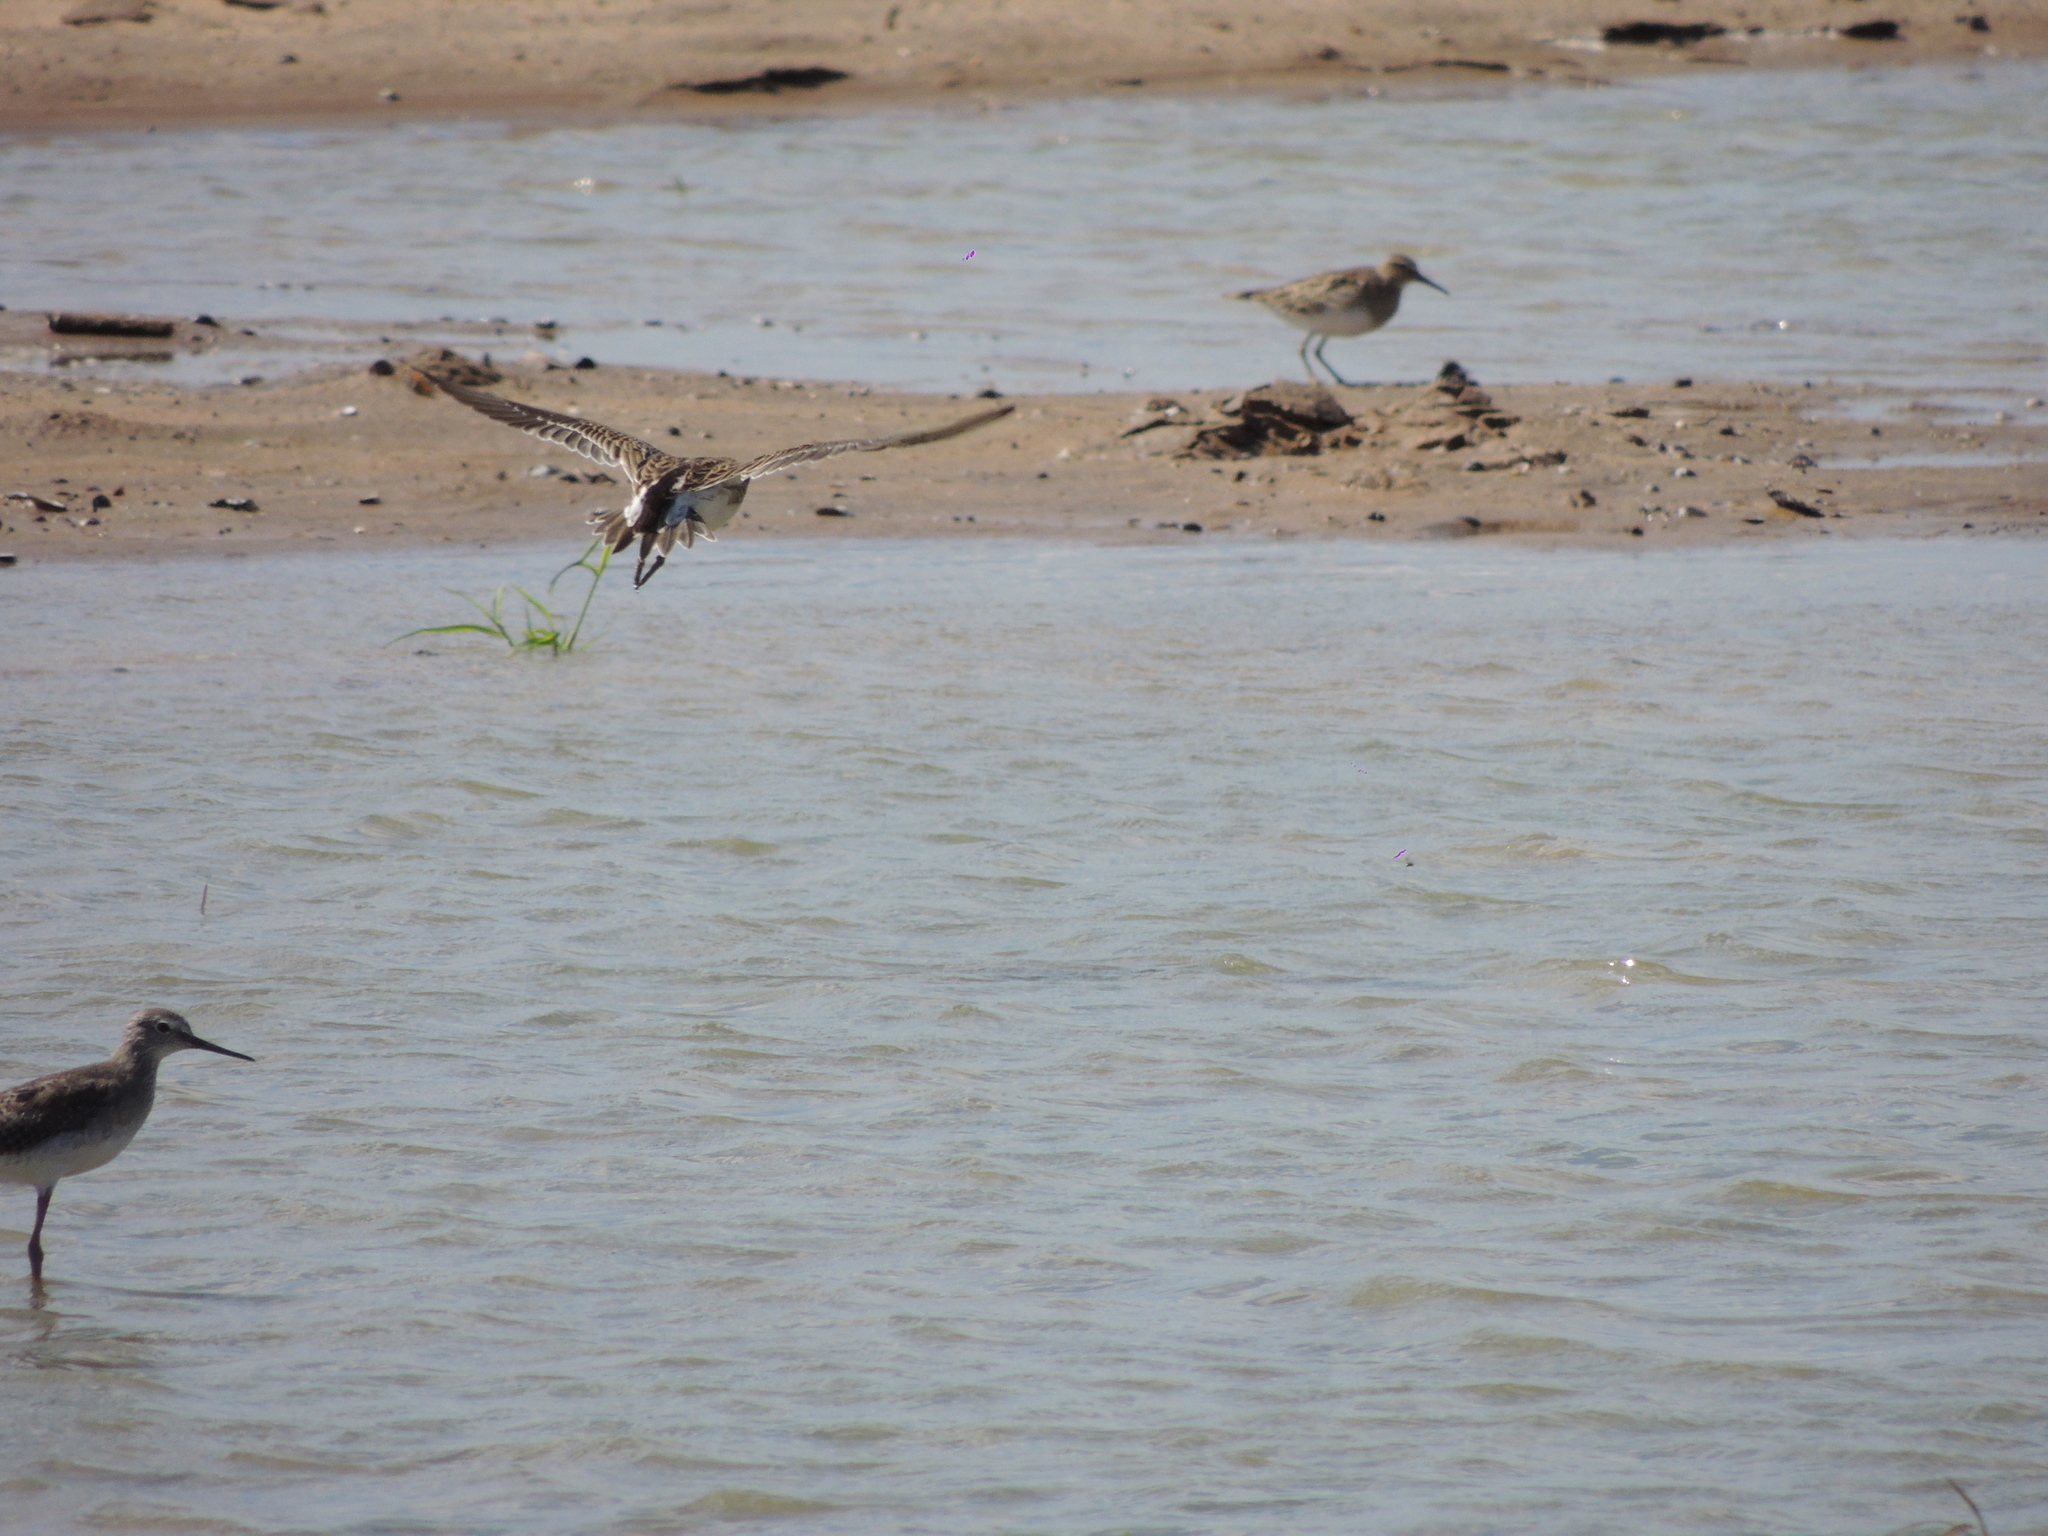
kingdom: Animalia
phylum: Chordata
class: Aves
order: Charadriiformes
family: Scolopacidae
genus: Calidris
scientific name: Calidris melanotos
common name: Pectoral sandpiper
